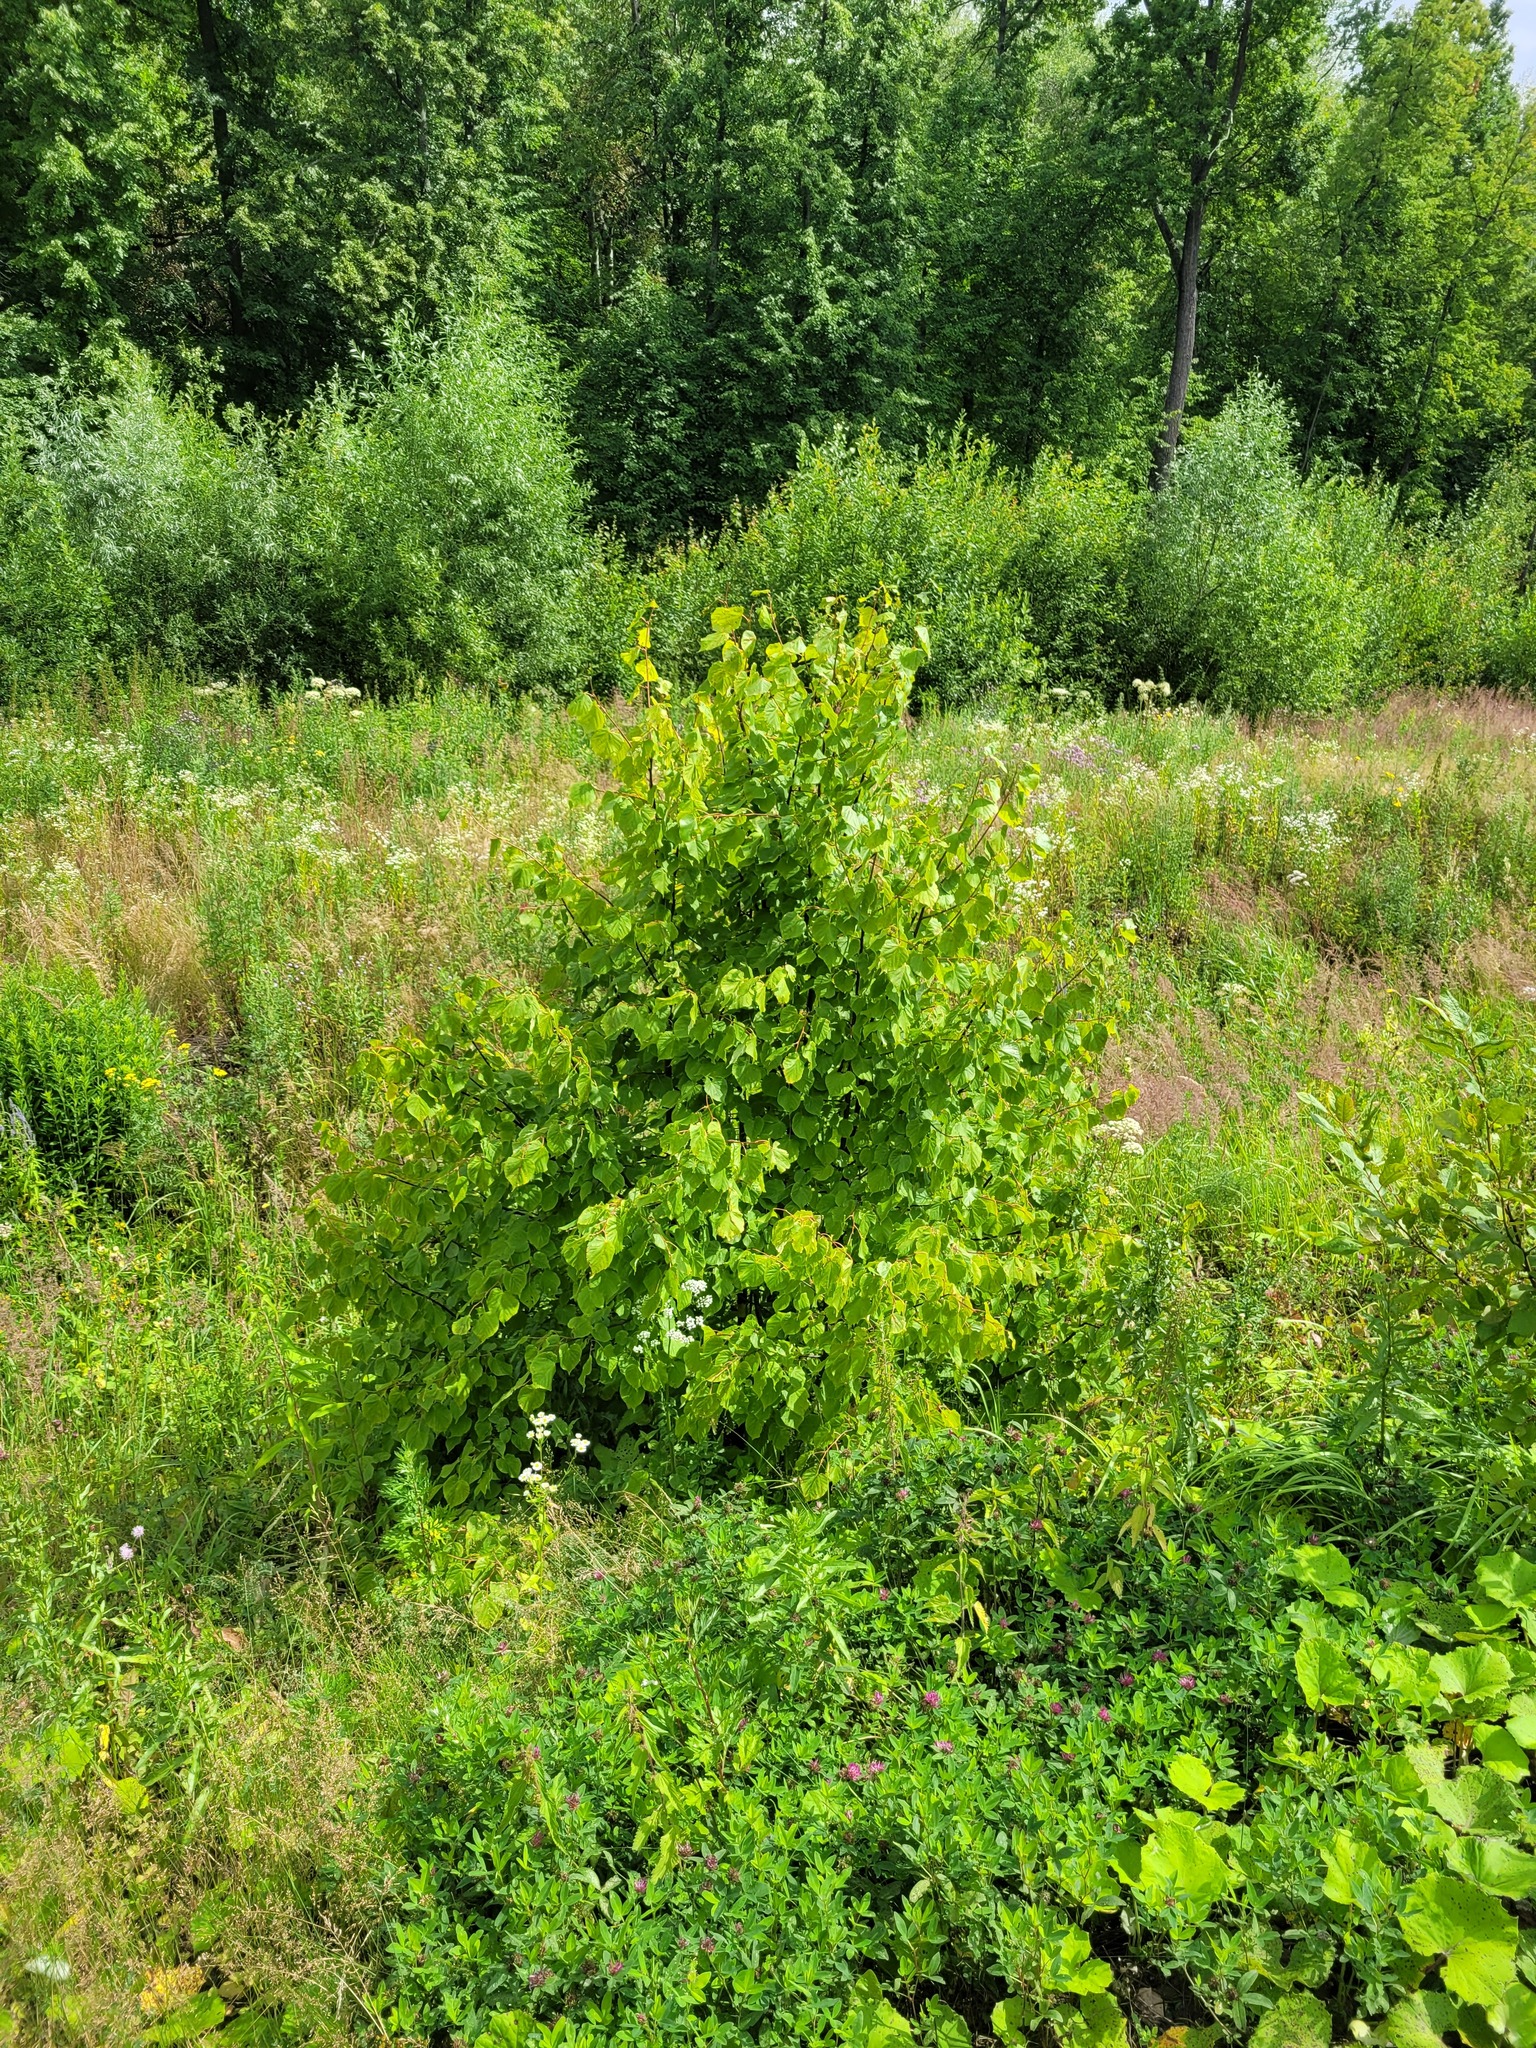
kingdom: Plantae
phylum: Tracheophyta
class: Magnoliopsida
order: Malvales
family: Malvaceae
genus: Tilia
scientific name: Tilia cordata
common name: Small-leaved lime
